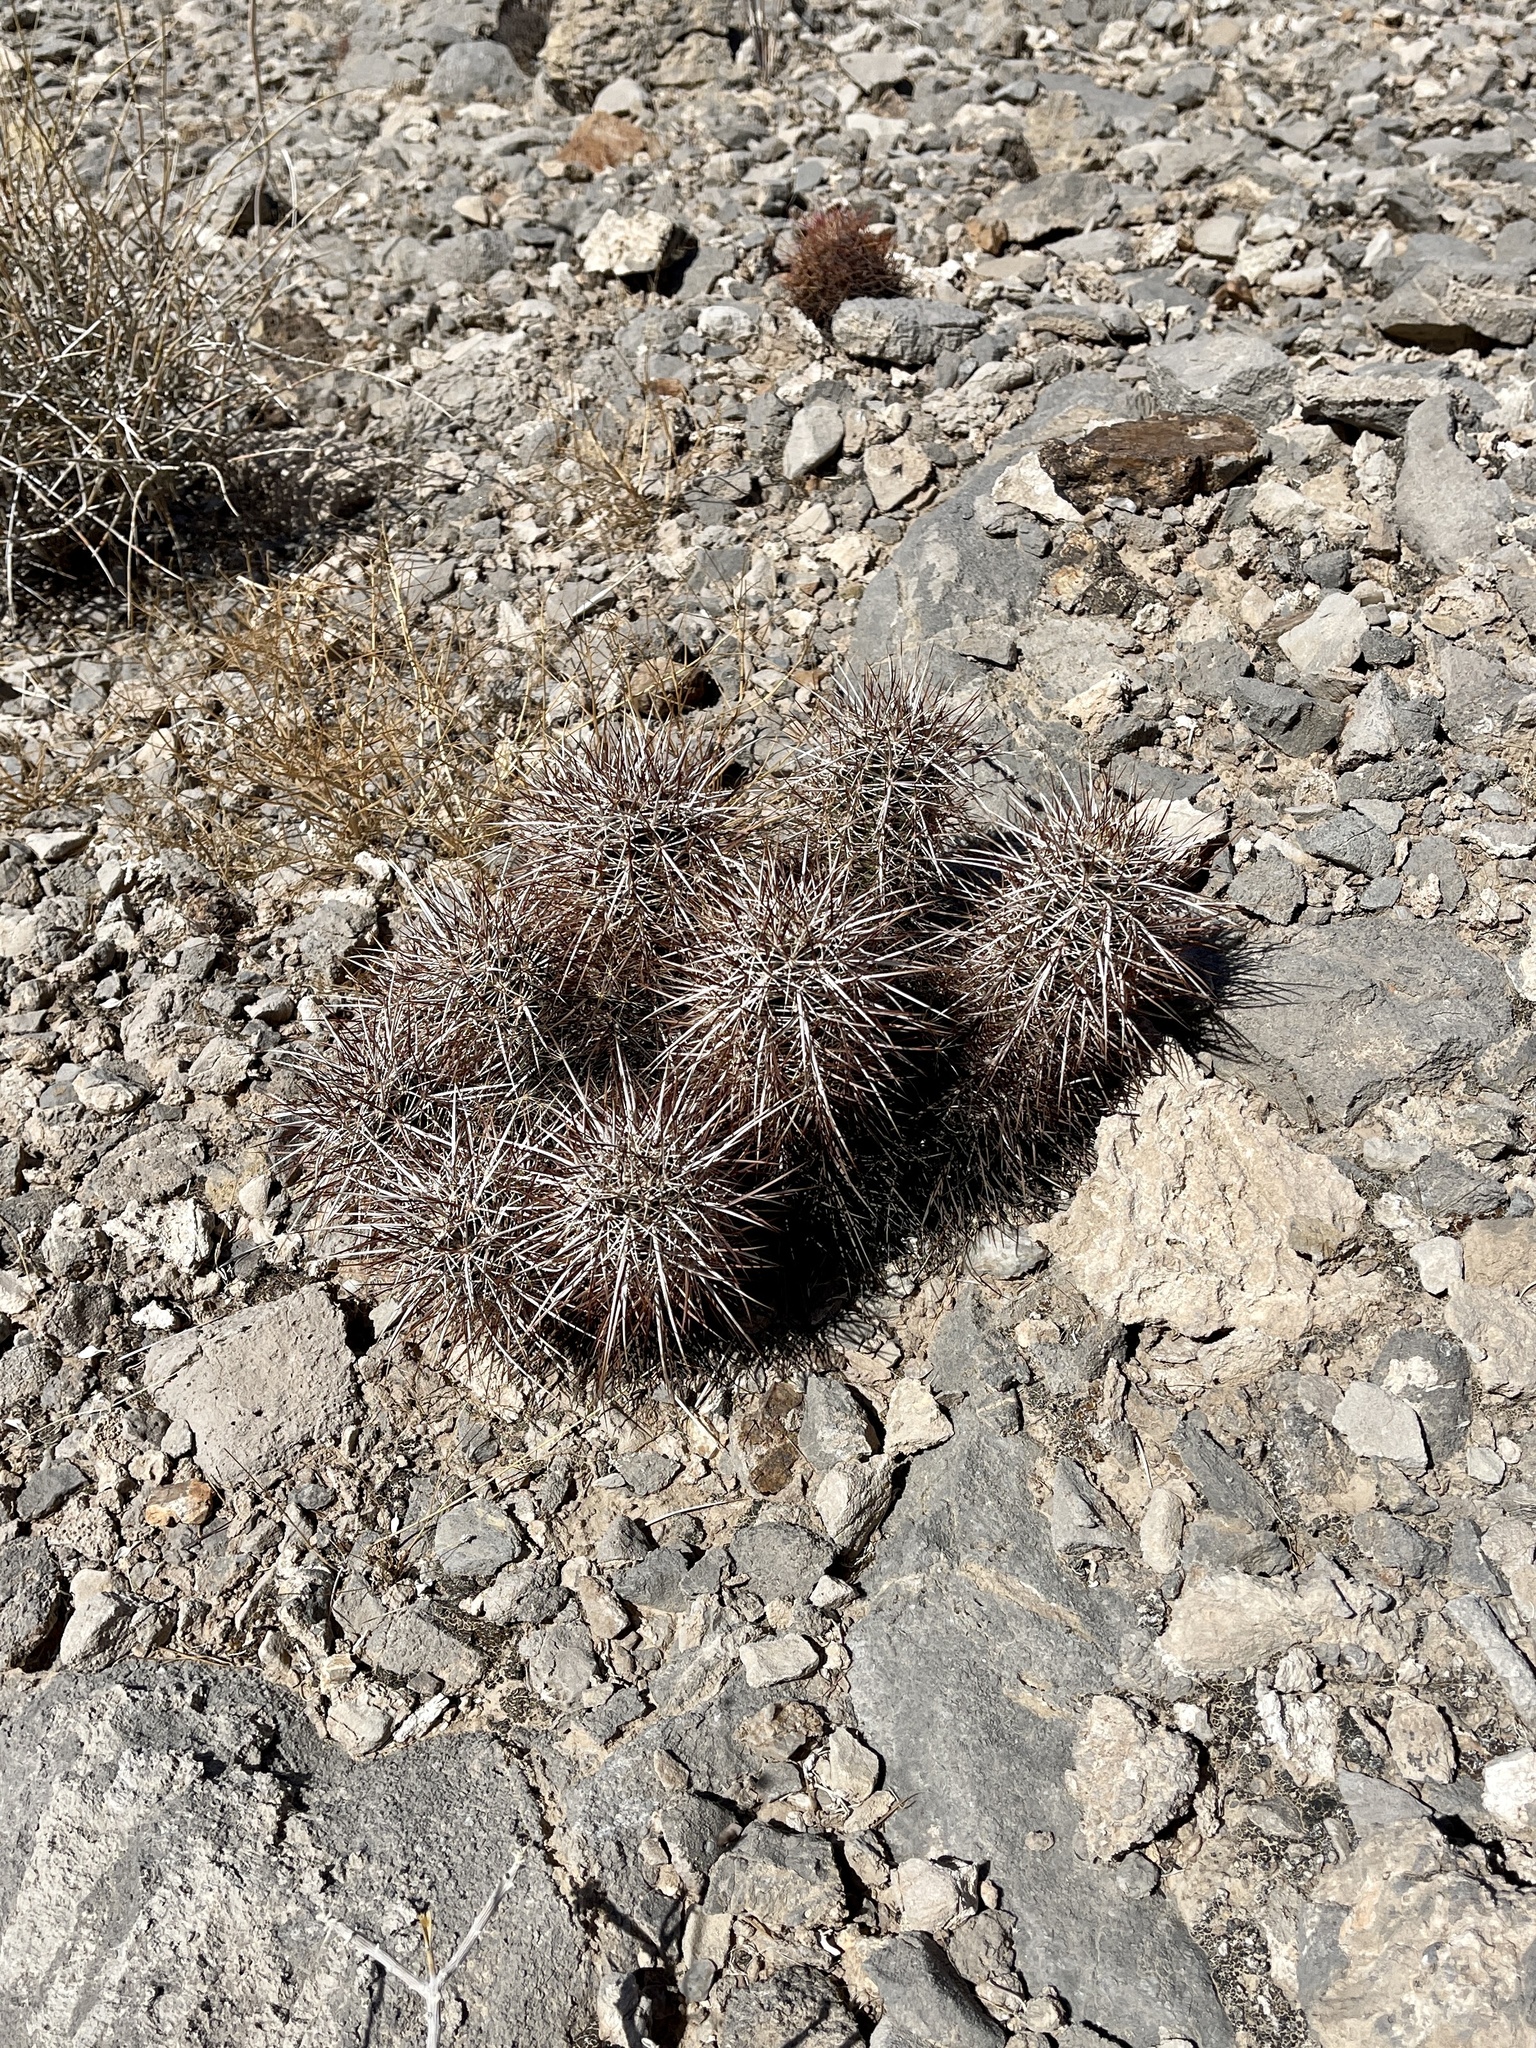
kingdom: Plantae
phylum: Tracheophyta
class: Magnoliopsida
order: Caryophyllales
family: Cactaceae
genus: Echinocereus
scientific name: Echinocereus engelmannii
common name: Engelmann's hedgehog cactus
